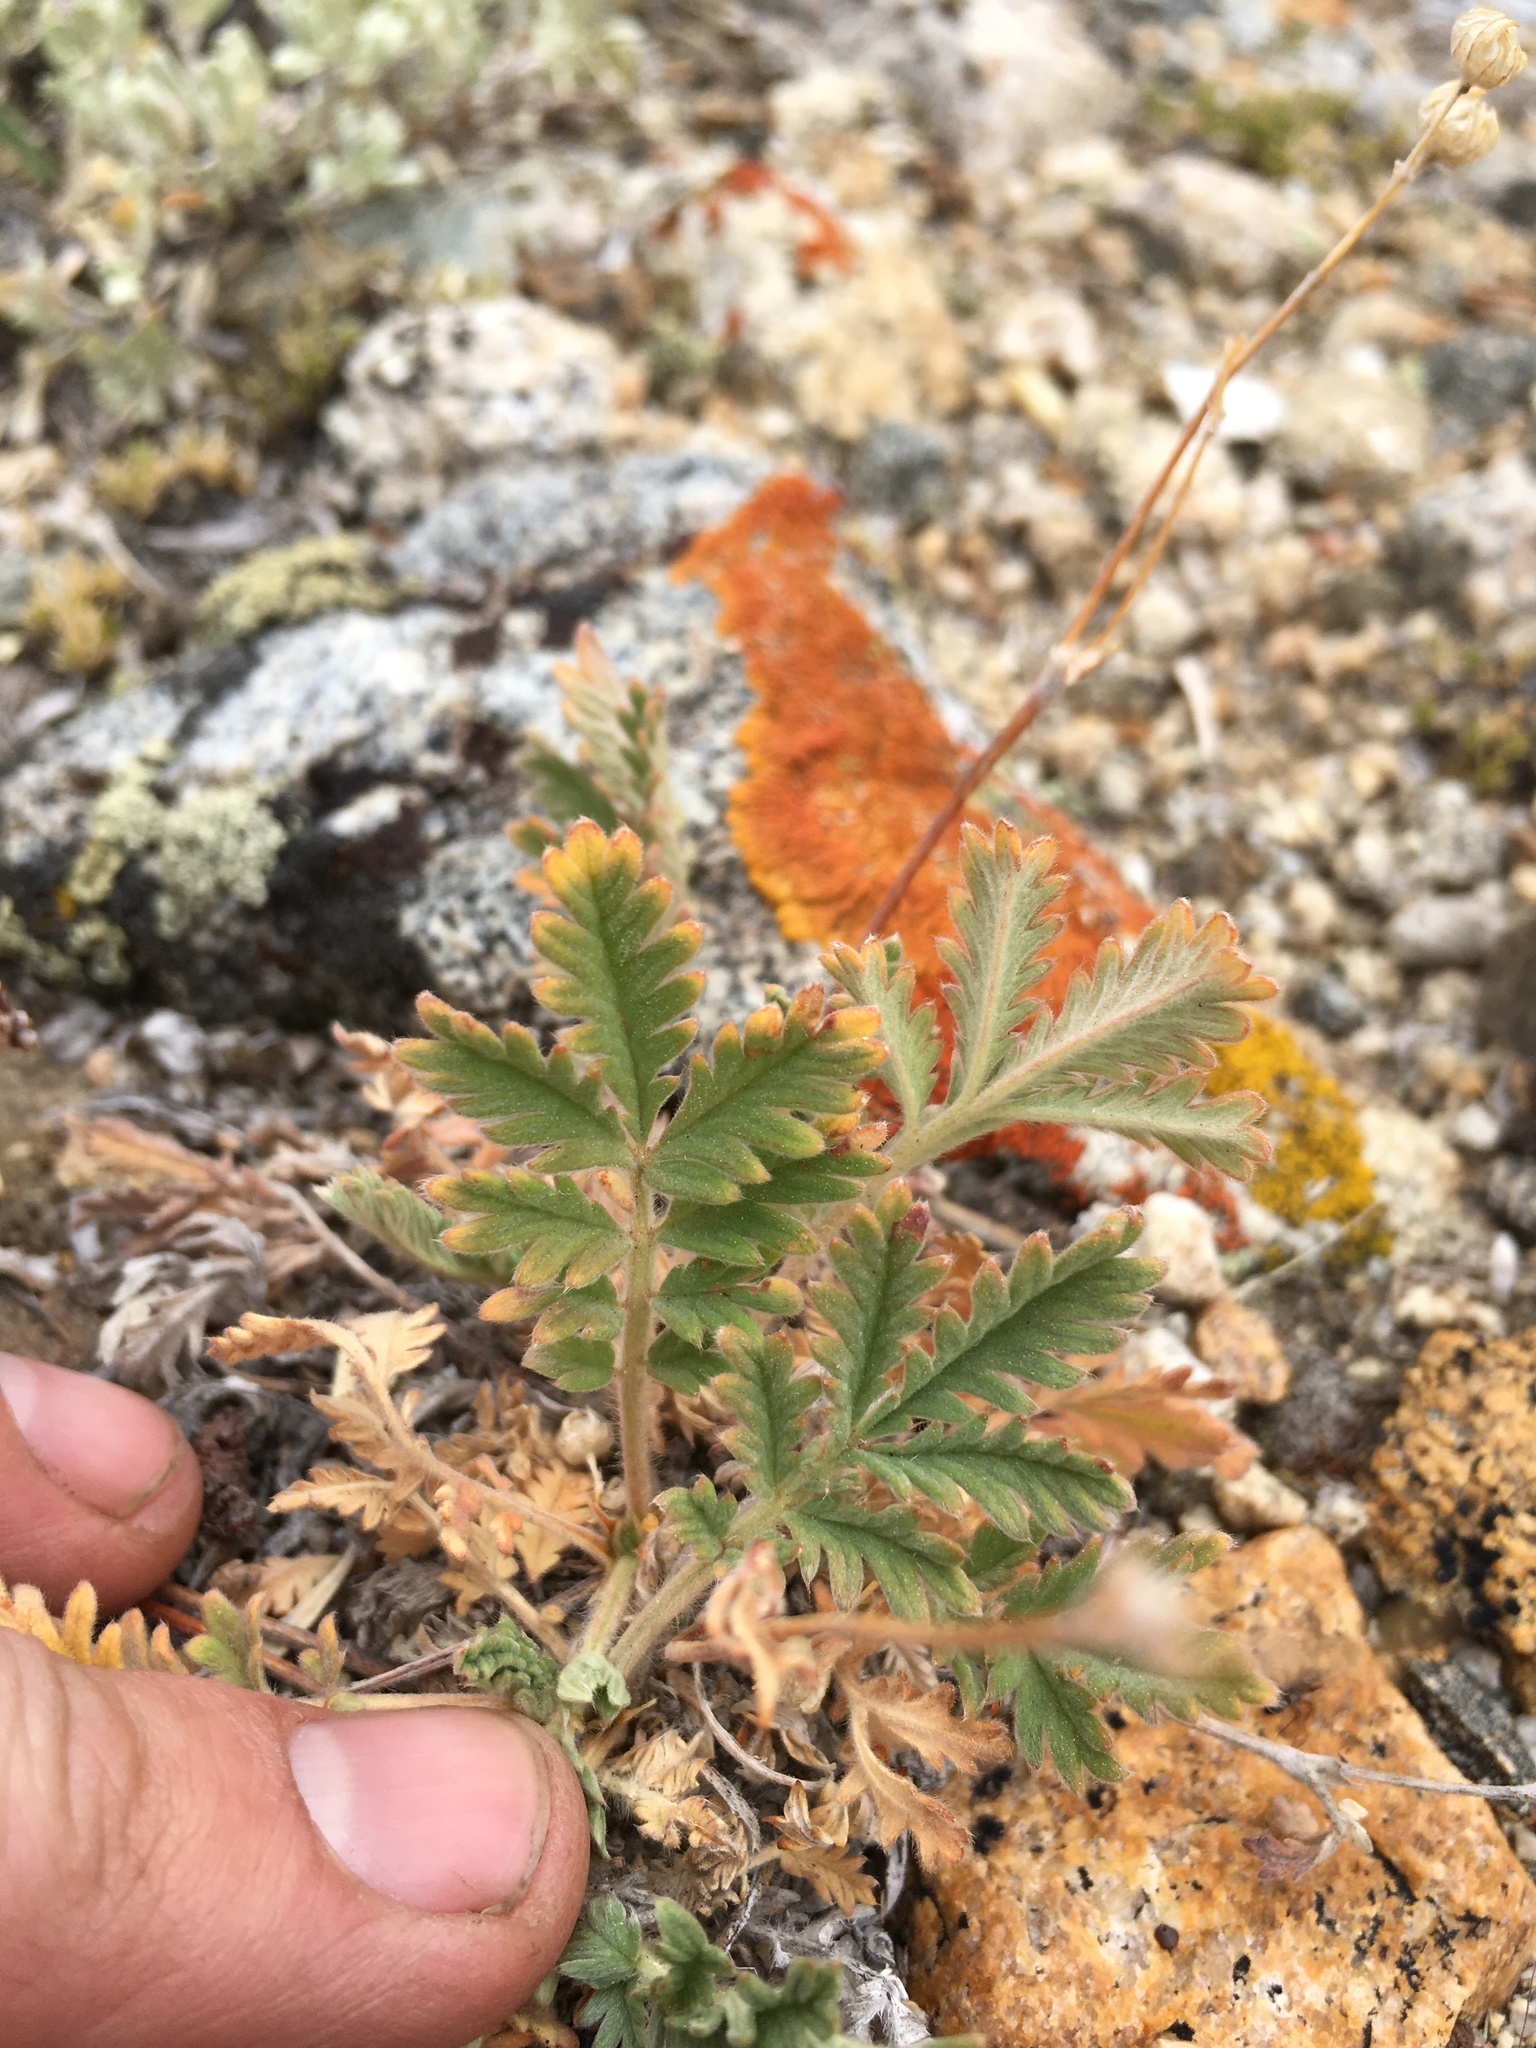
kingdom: Plantae
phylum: Tracheophyta
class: Magnoliopsida
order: Rosales
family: Rosaceae
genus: Potentilla
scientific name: Potentilla pensylvanica
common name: Pennsylvania cinquefoil
